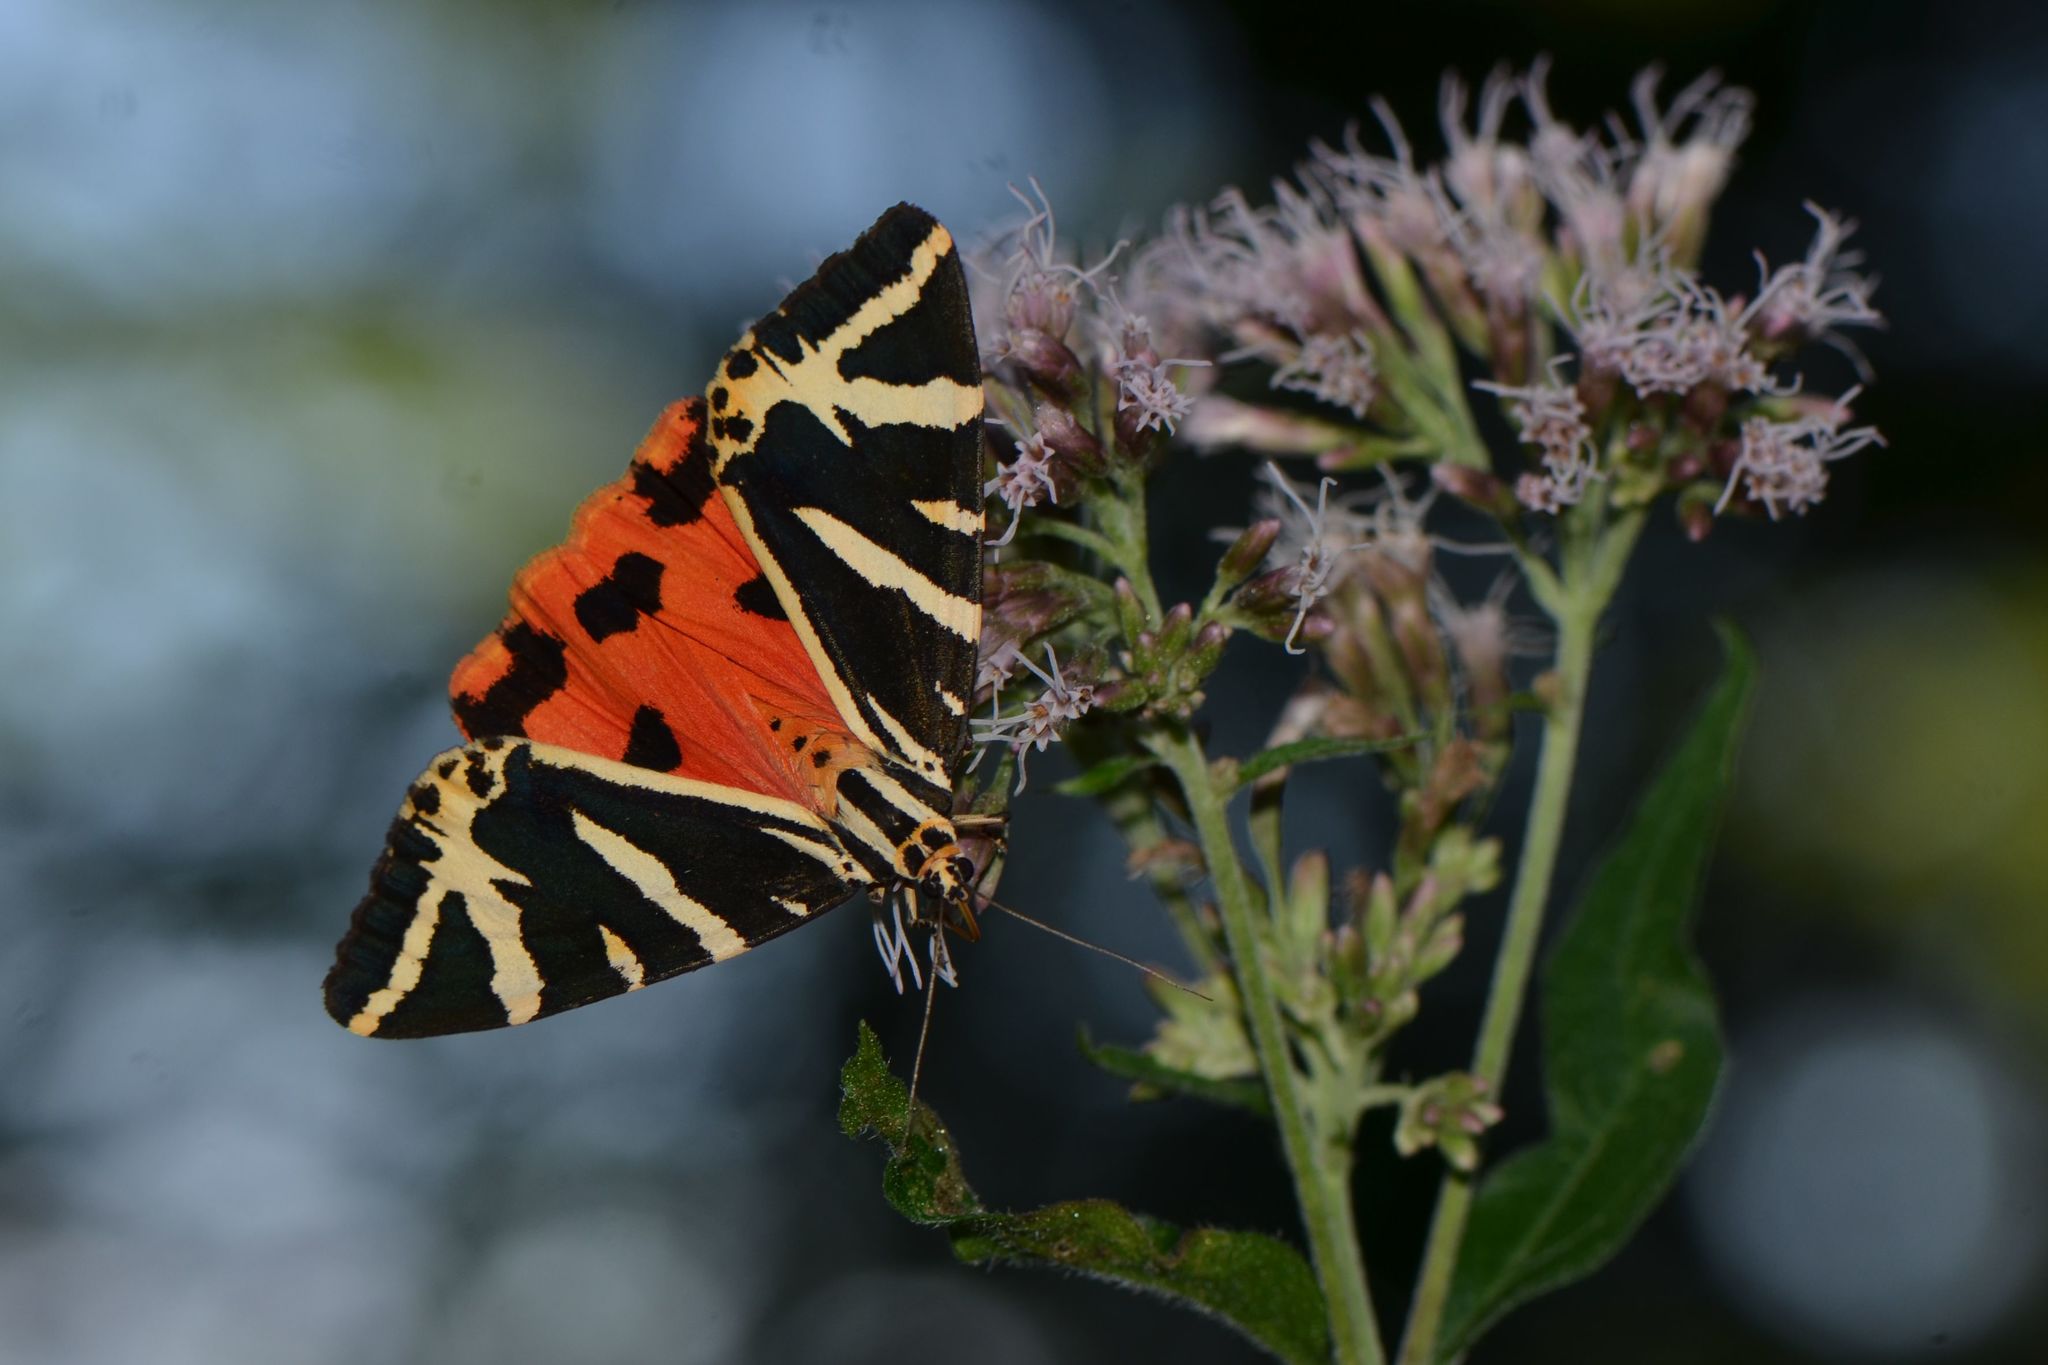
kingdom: Animalia
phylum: Arthropoda
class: Insecta
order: Lepidoptera
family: Erebidae
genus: Euplagia
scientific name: Euplagia quadripunctaria
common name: Jersey tiger
